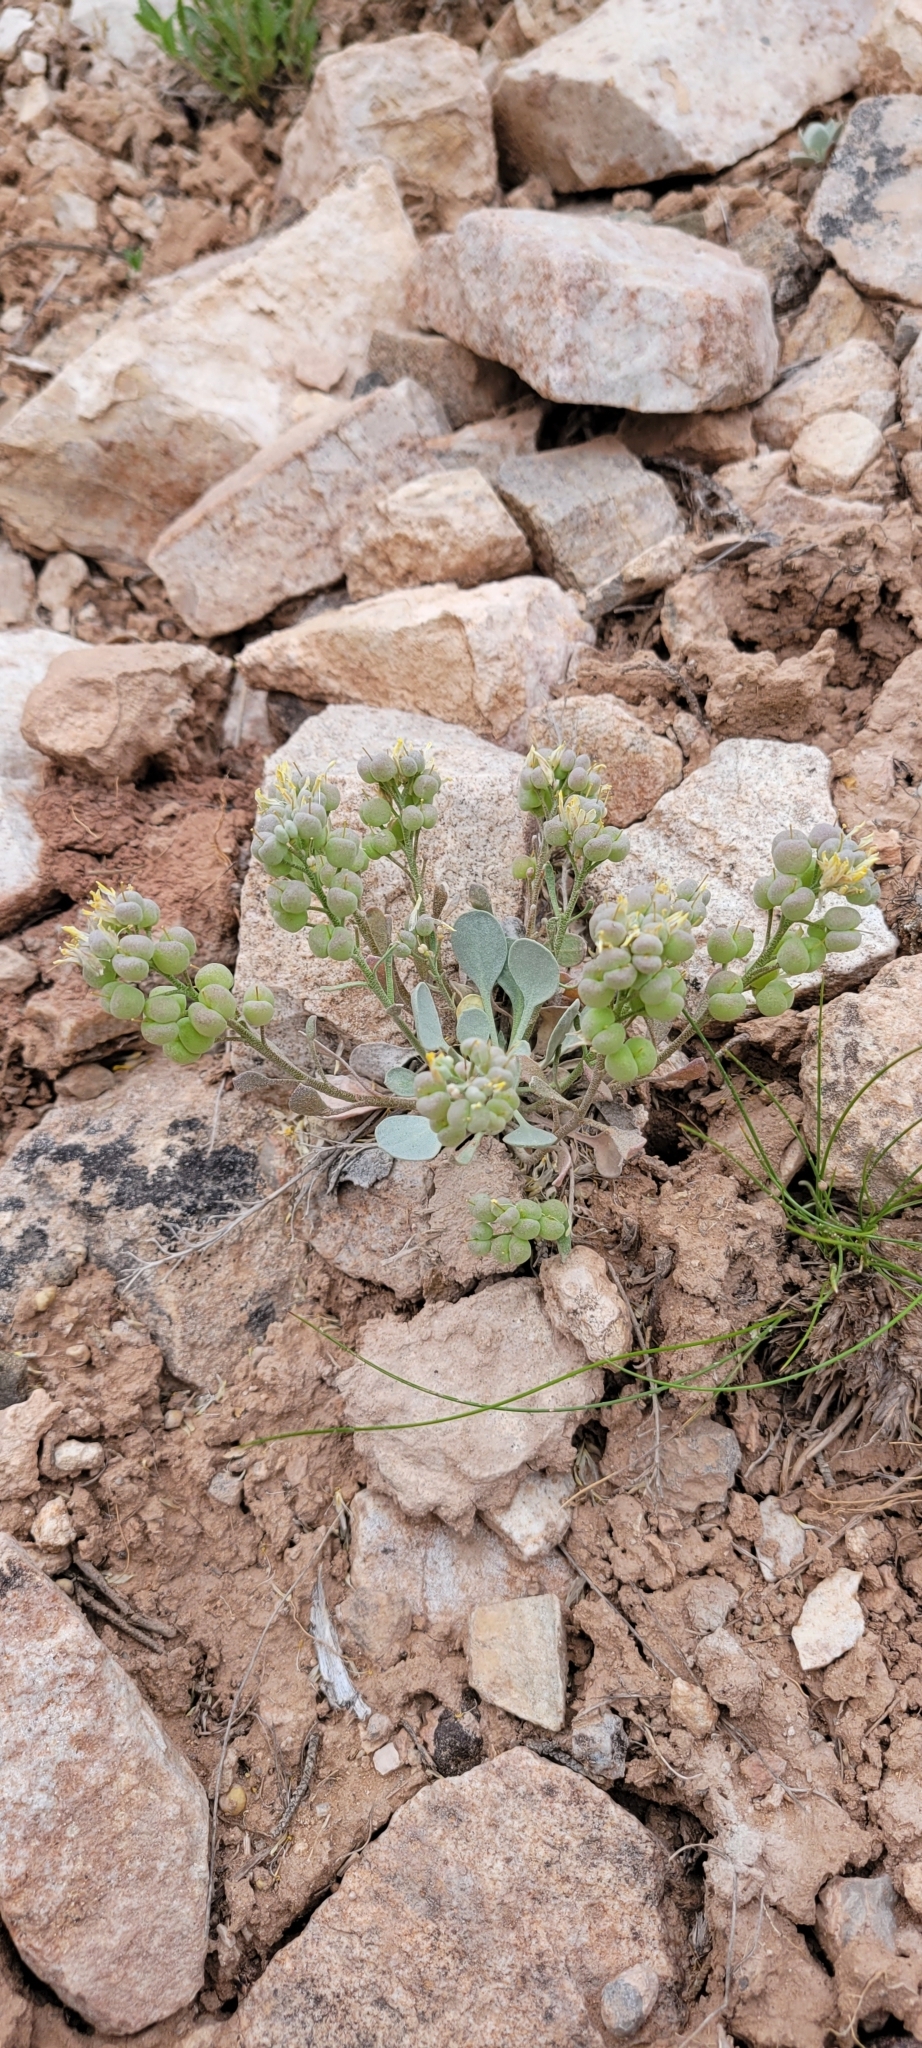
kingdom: Plantae
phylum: Tracheophyta
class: Magnoliopsida
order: Brassicales
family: Brassicaceae
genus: Physaria
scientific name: Physaria acutifolia
